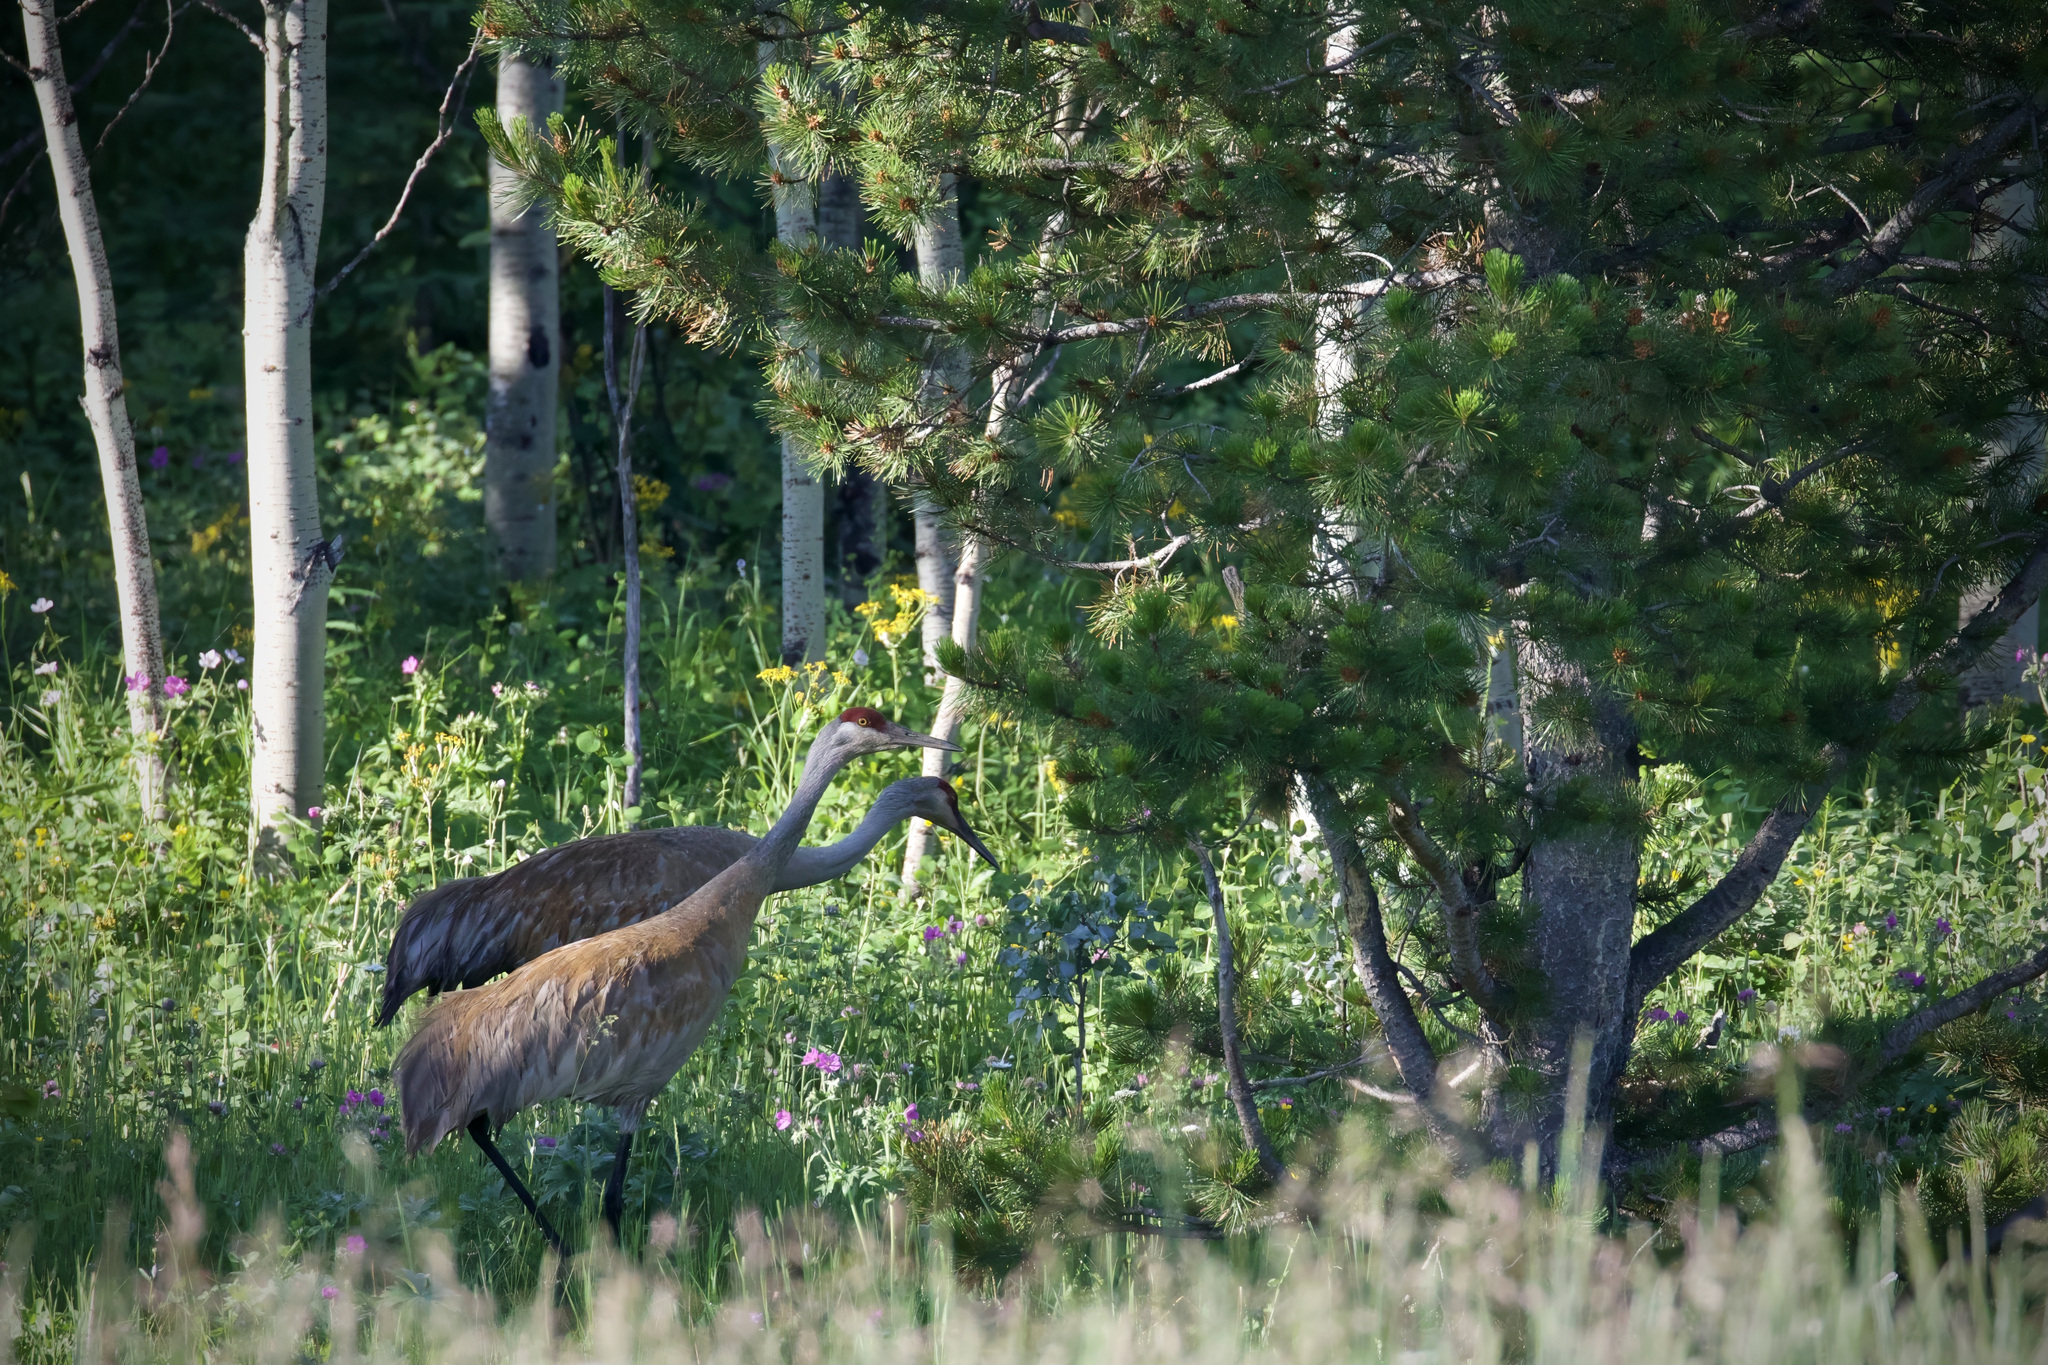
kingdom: Animalia
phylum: Chordata
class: Aves
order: Gruiformes
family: Gruidae
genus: Grus
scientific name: Grus canadensis
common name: Sandhill crane
